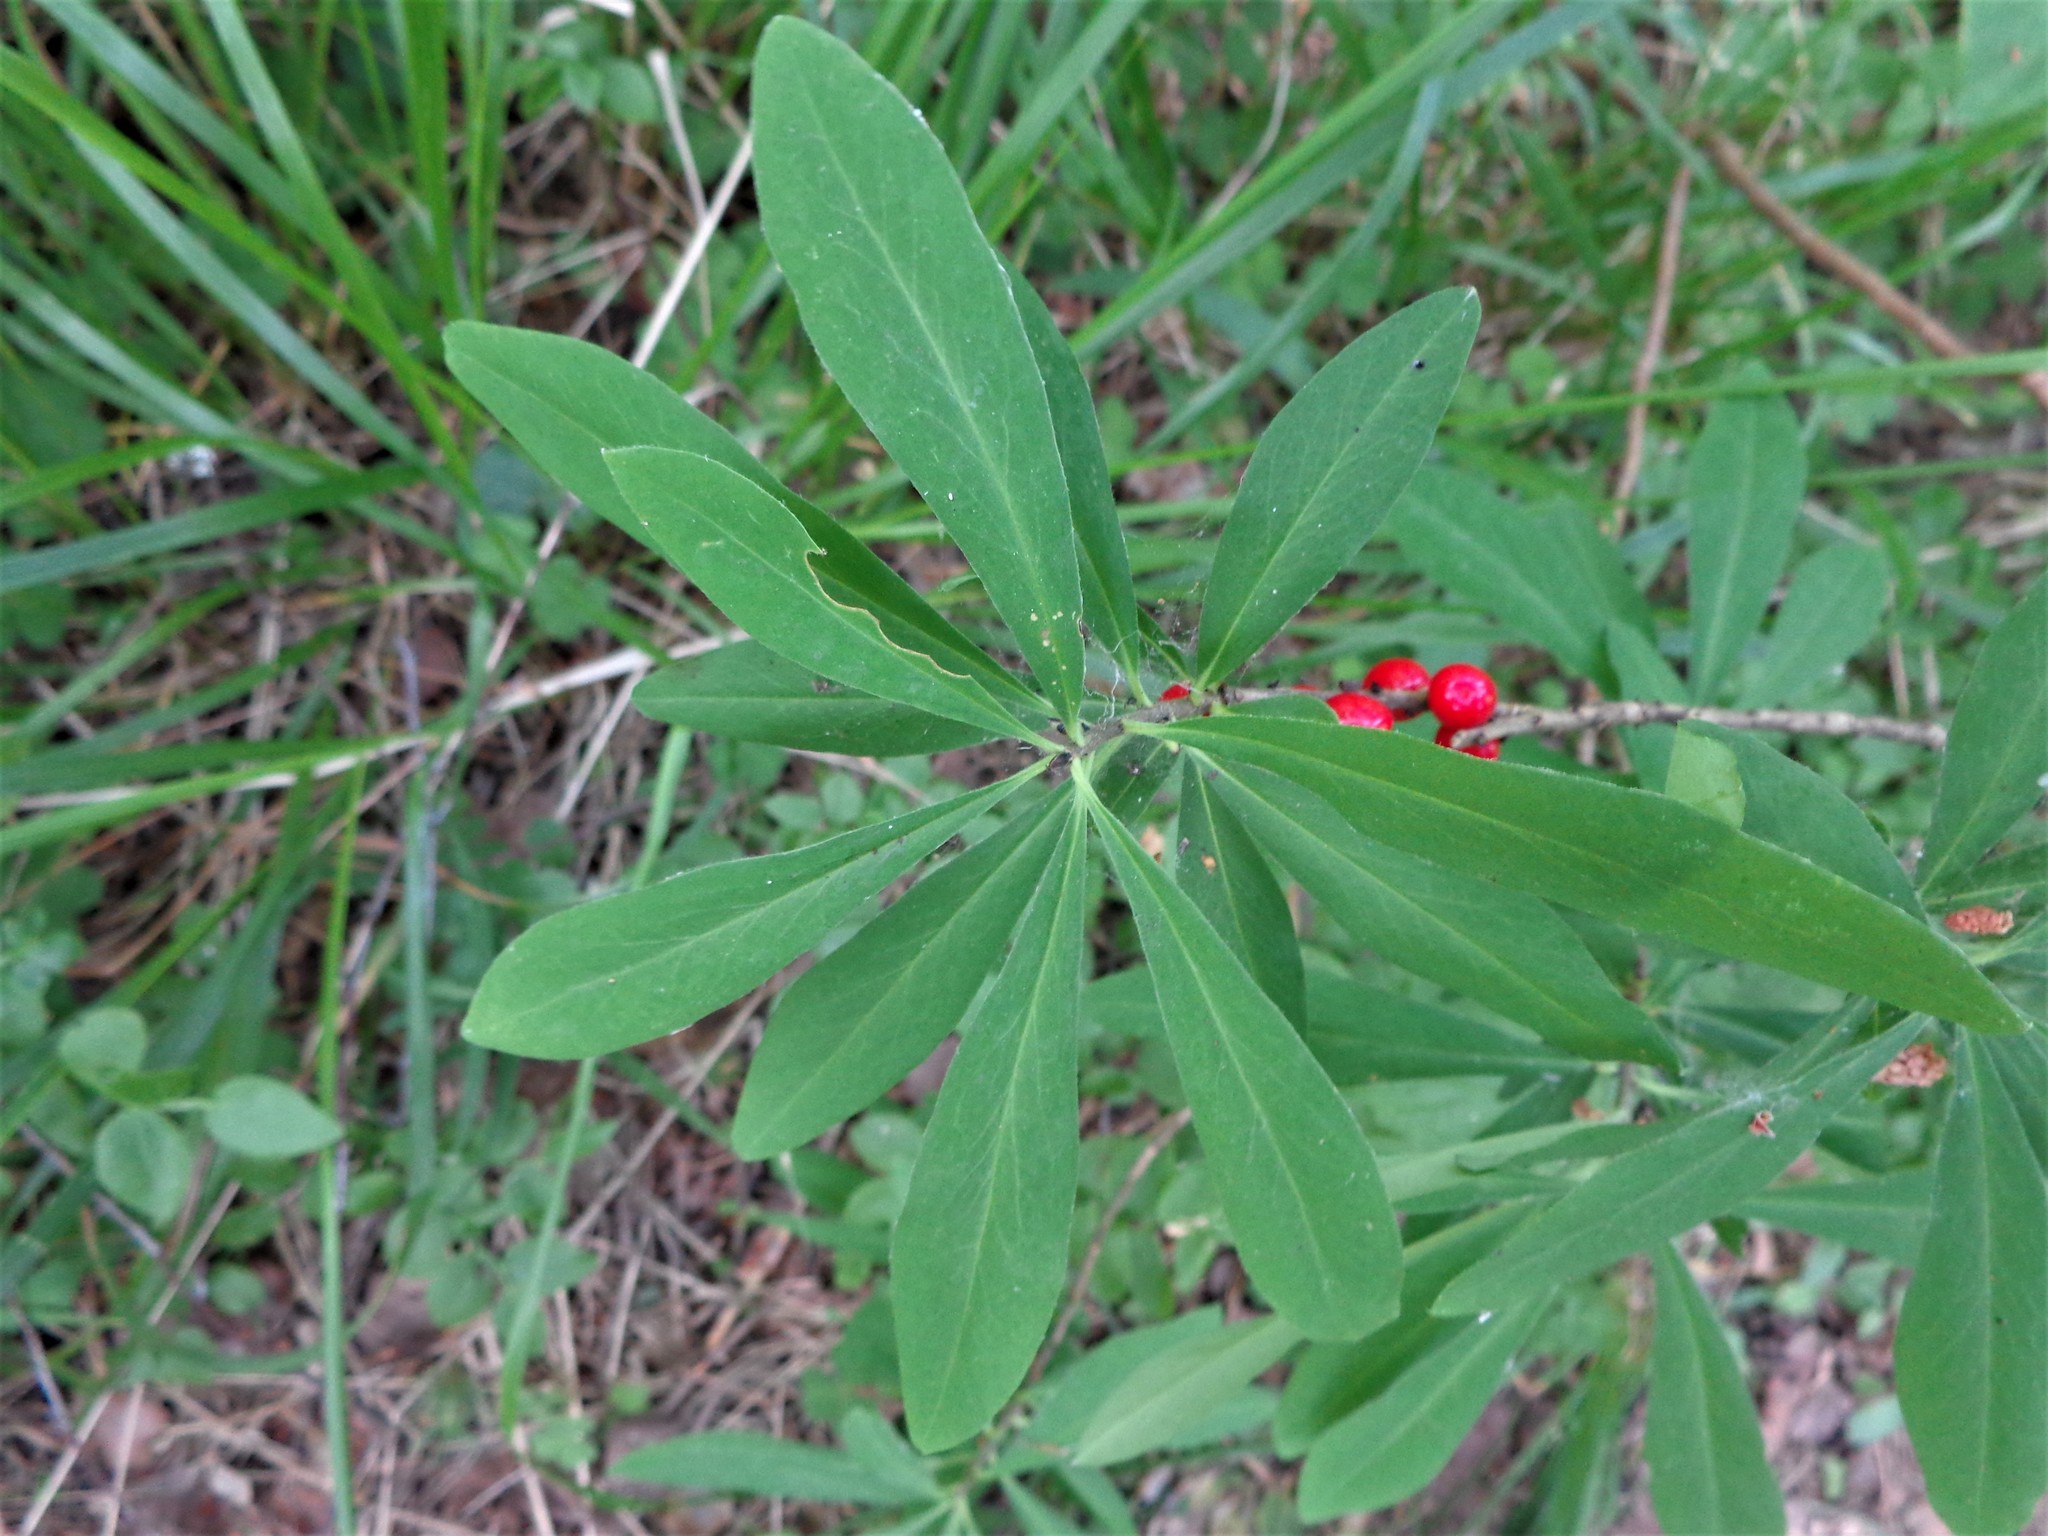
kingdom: Plantae
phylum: Tracheophyta
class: Magnoliopsida
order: Malvales
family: Thymelaeaceae
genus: Daphne
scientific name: Daphne mezereum
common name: Mezereon
